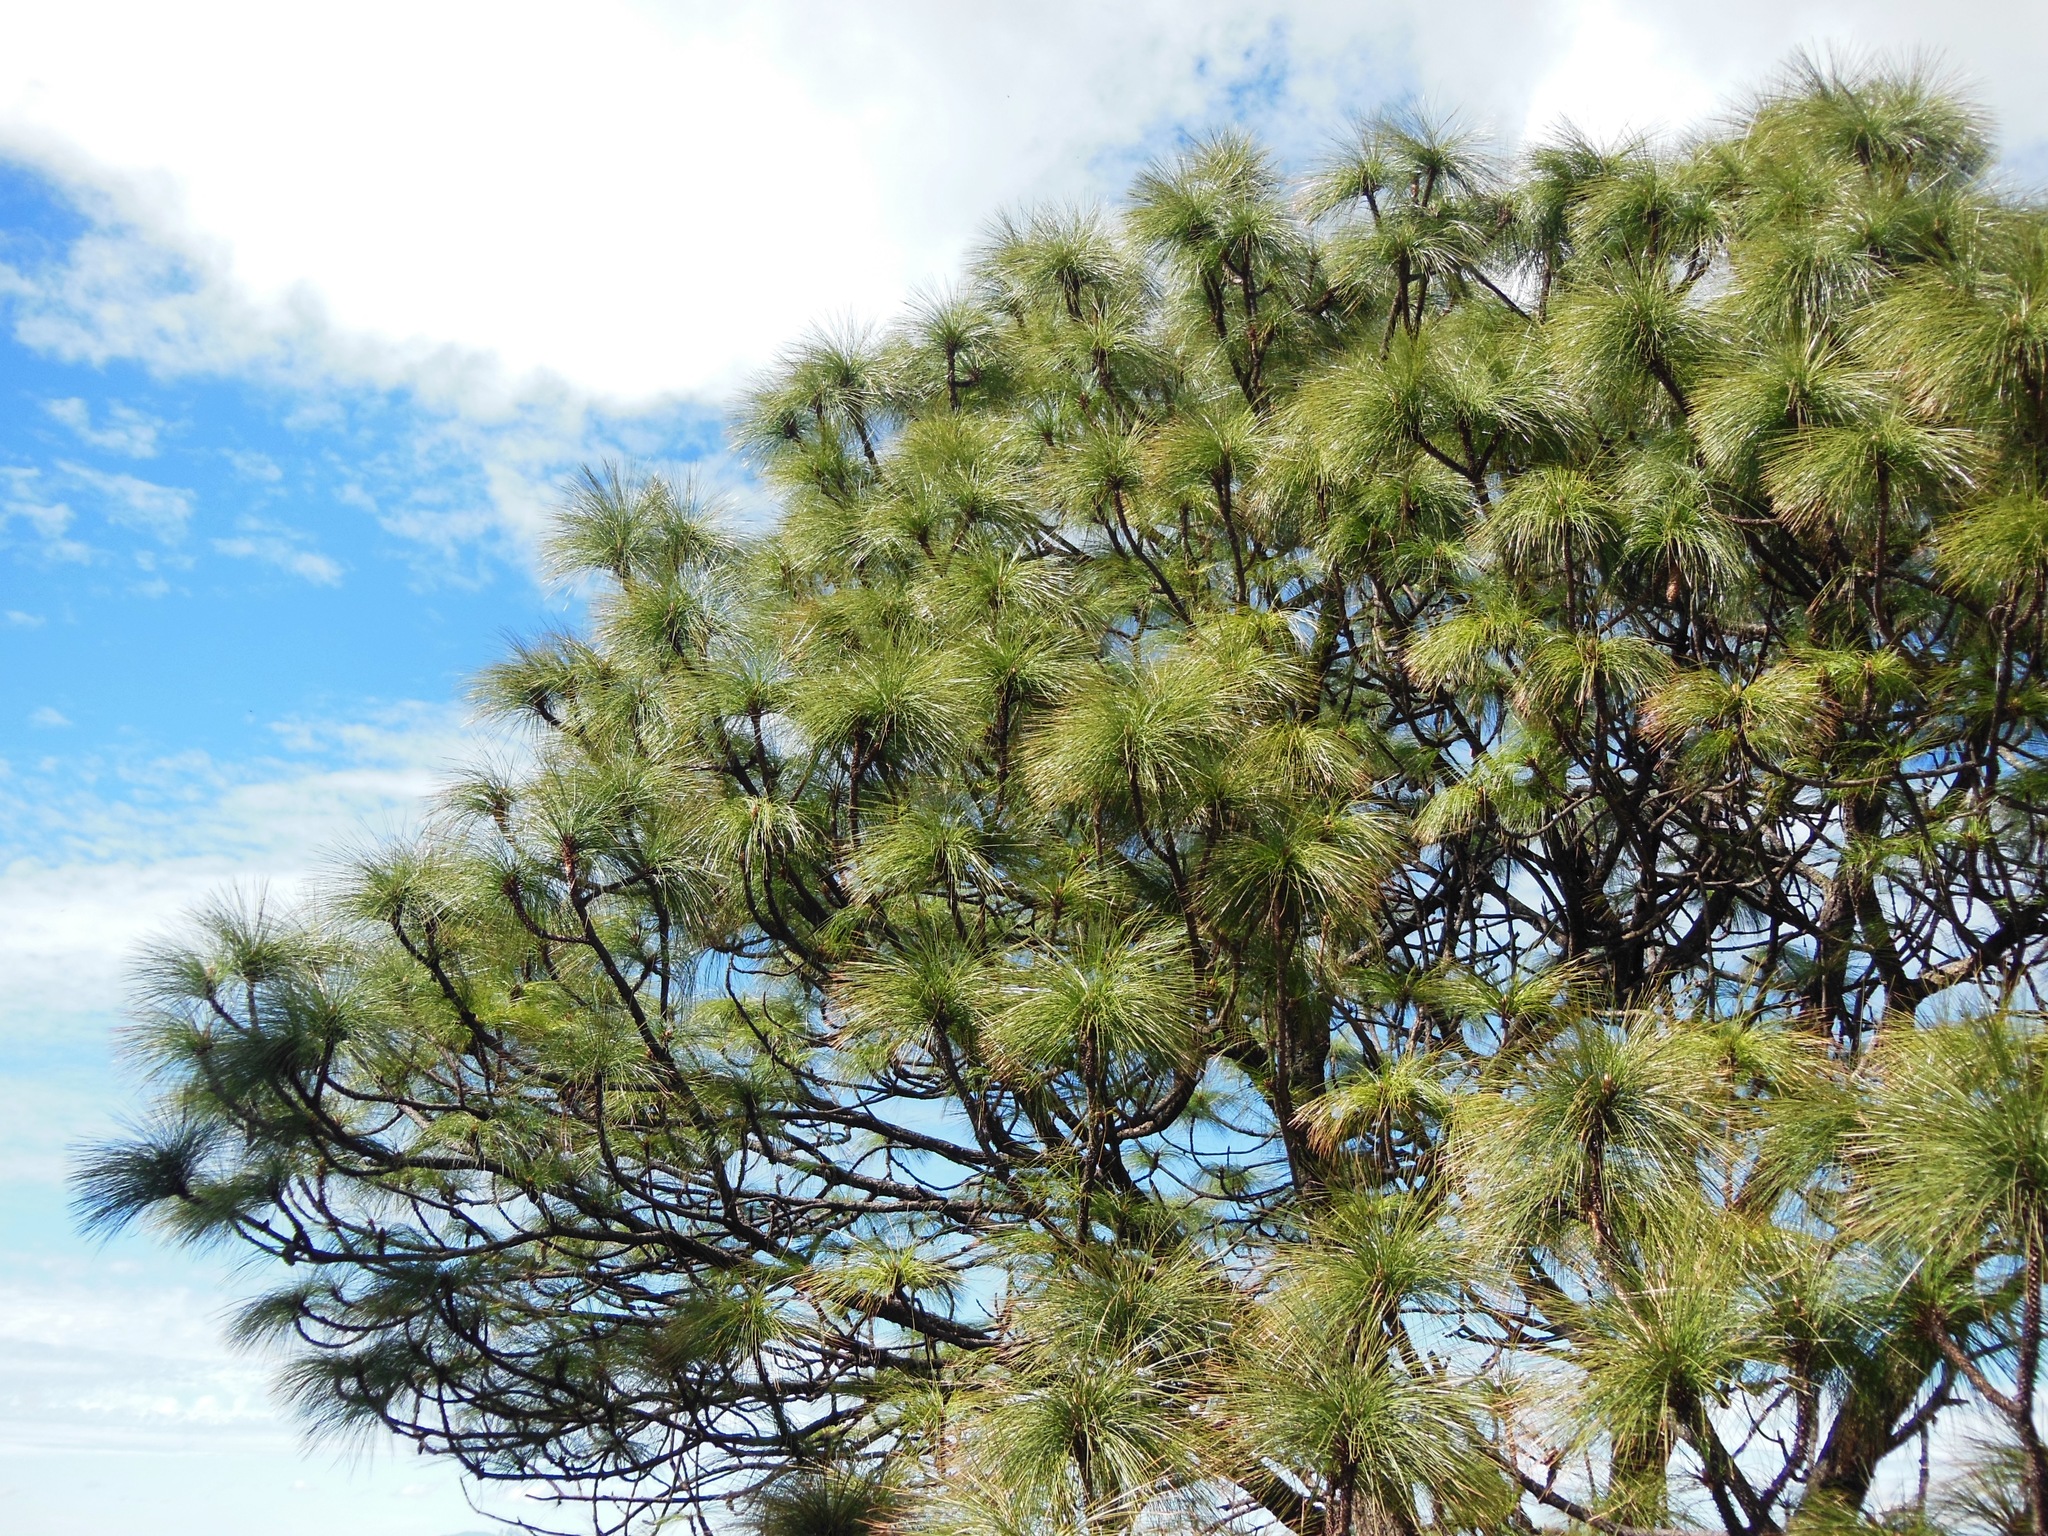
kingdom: Plantae
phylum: Tracheophyta
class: Pinopsida
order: Pinales
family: Pinaceae
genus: Pinus
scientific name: Pinus devoniana
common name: Michoacan pine
